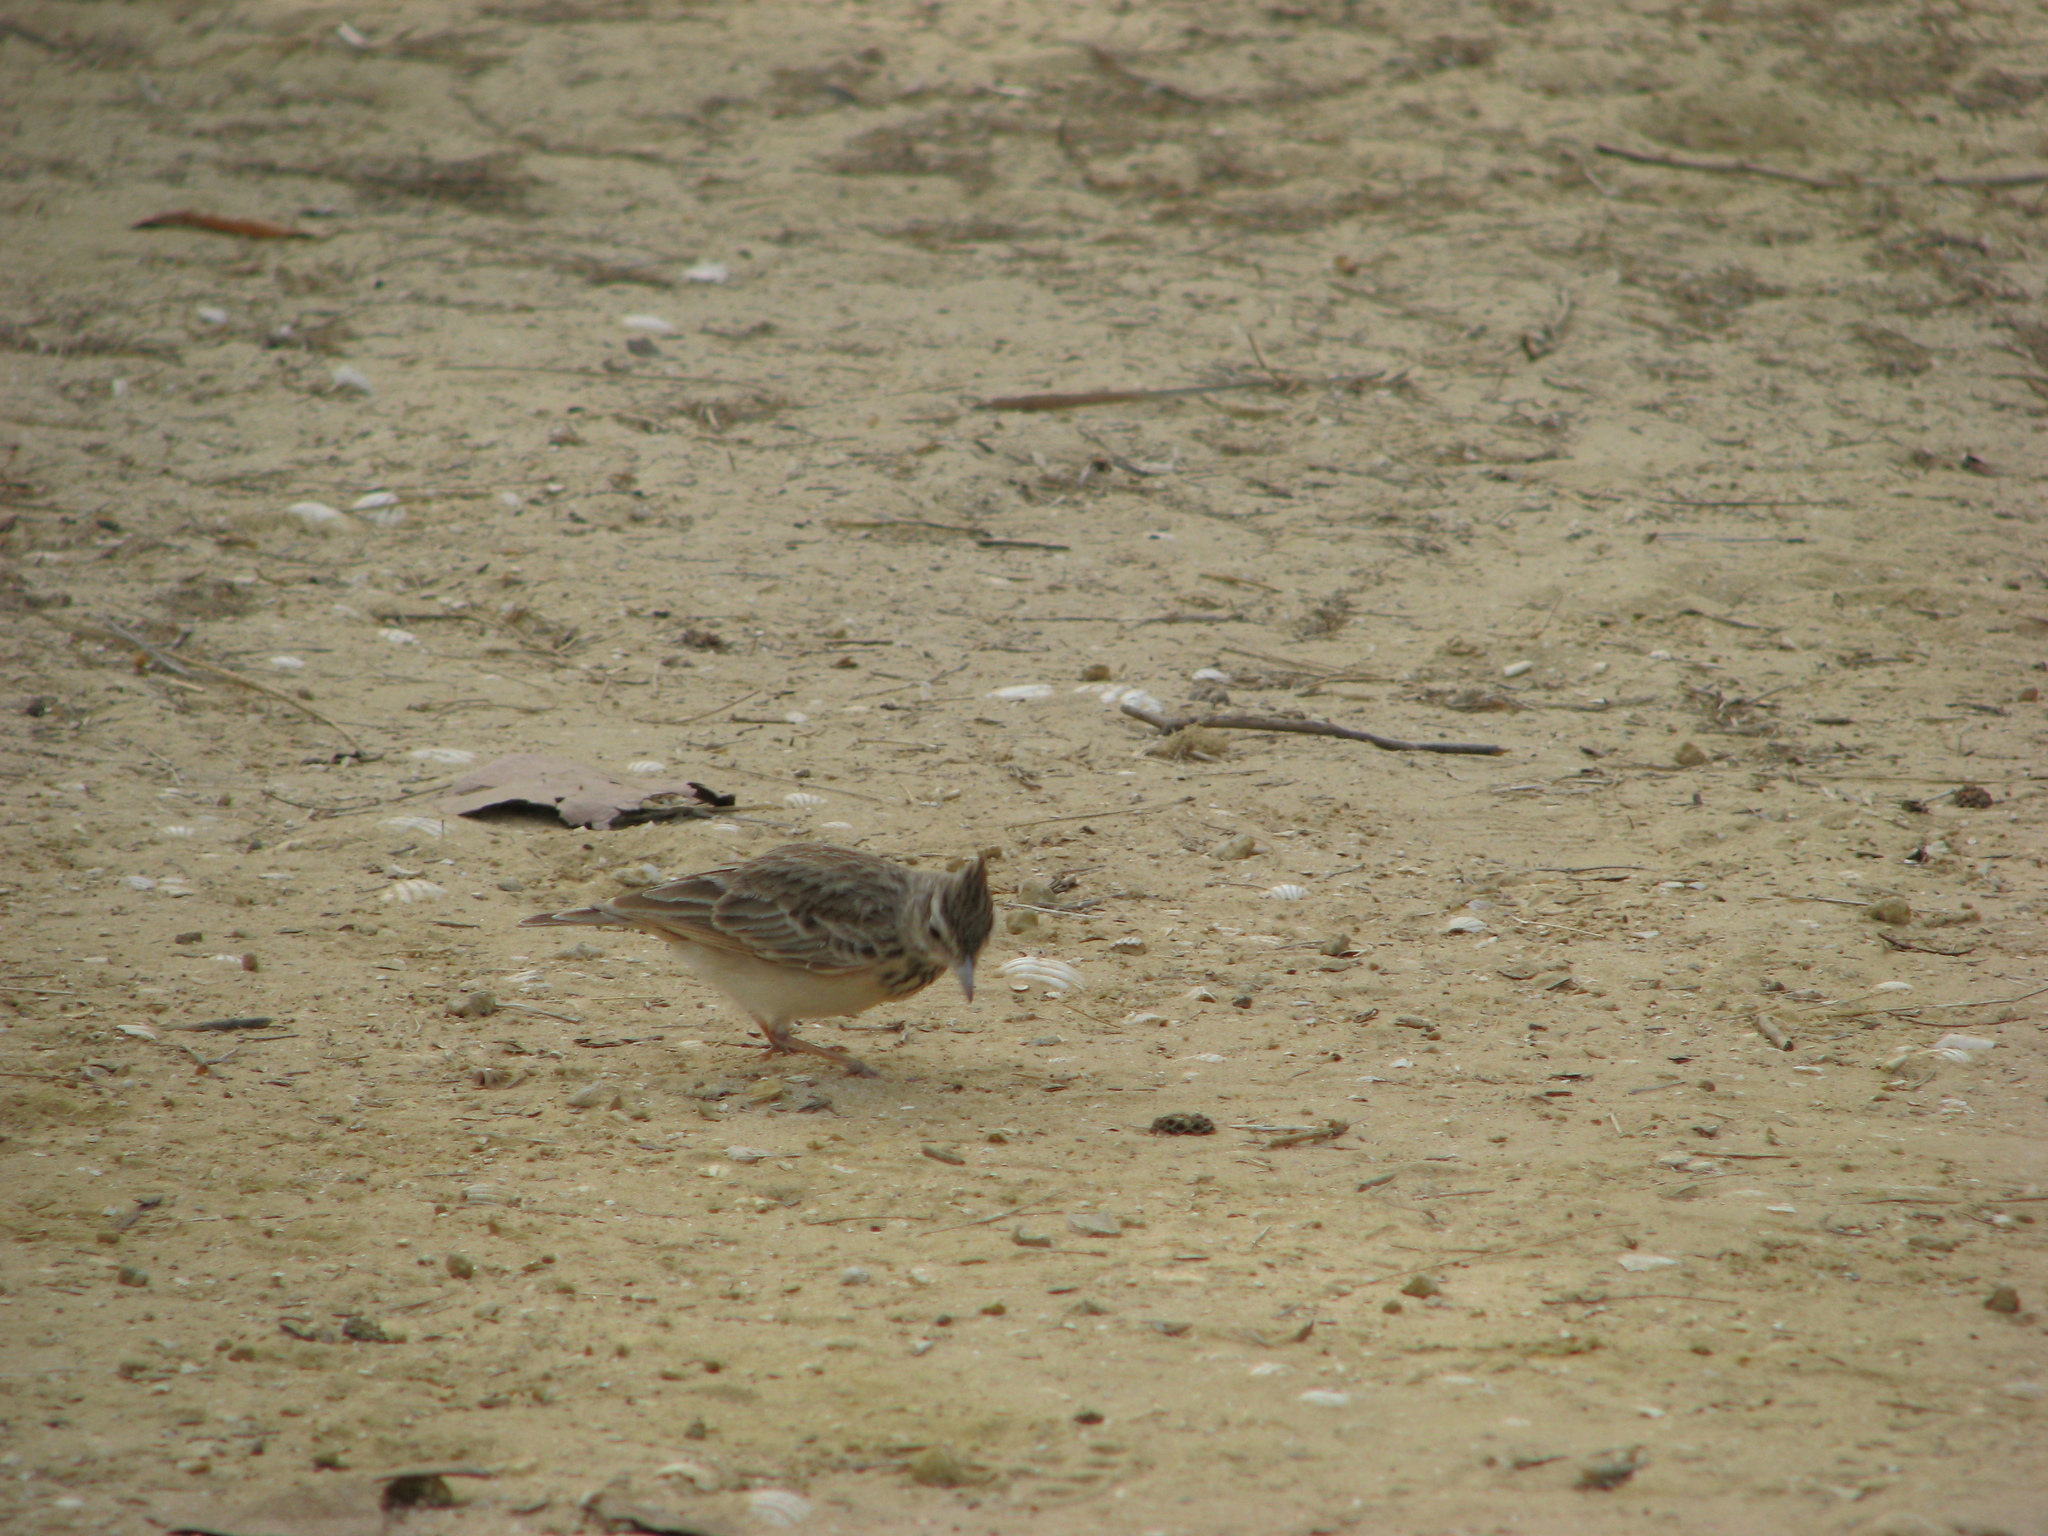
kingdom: Animalia
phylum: Chordata
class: Aves
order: Passeriformes
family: Alaudidae
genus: Galerida
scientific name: Galerida cristata
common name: Crested lark
